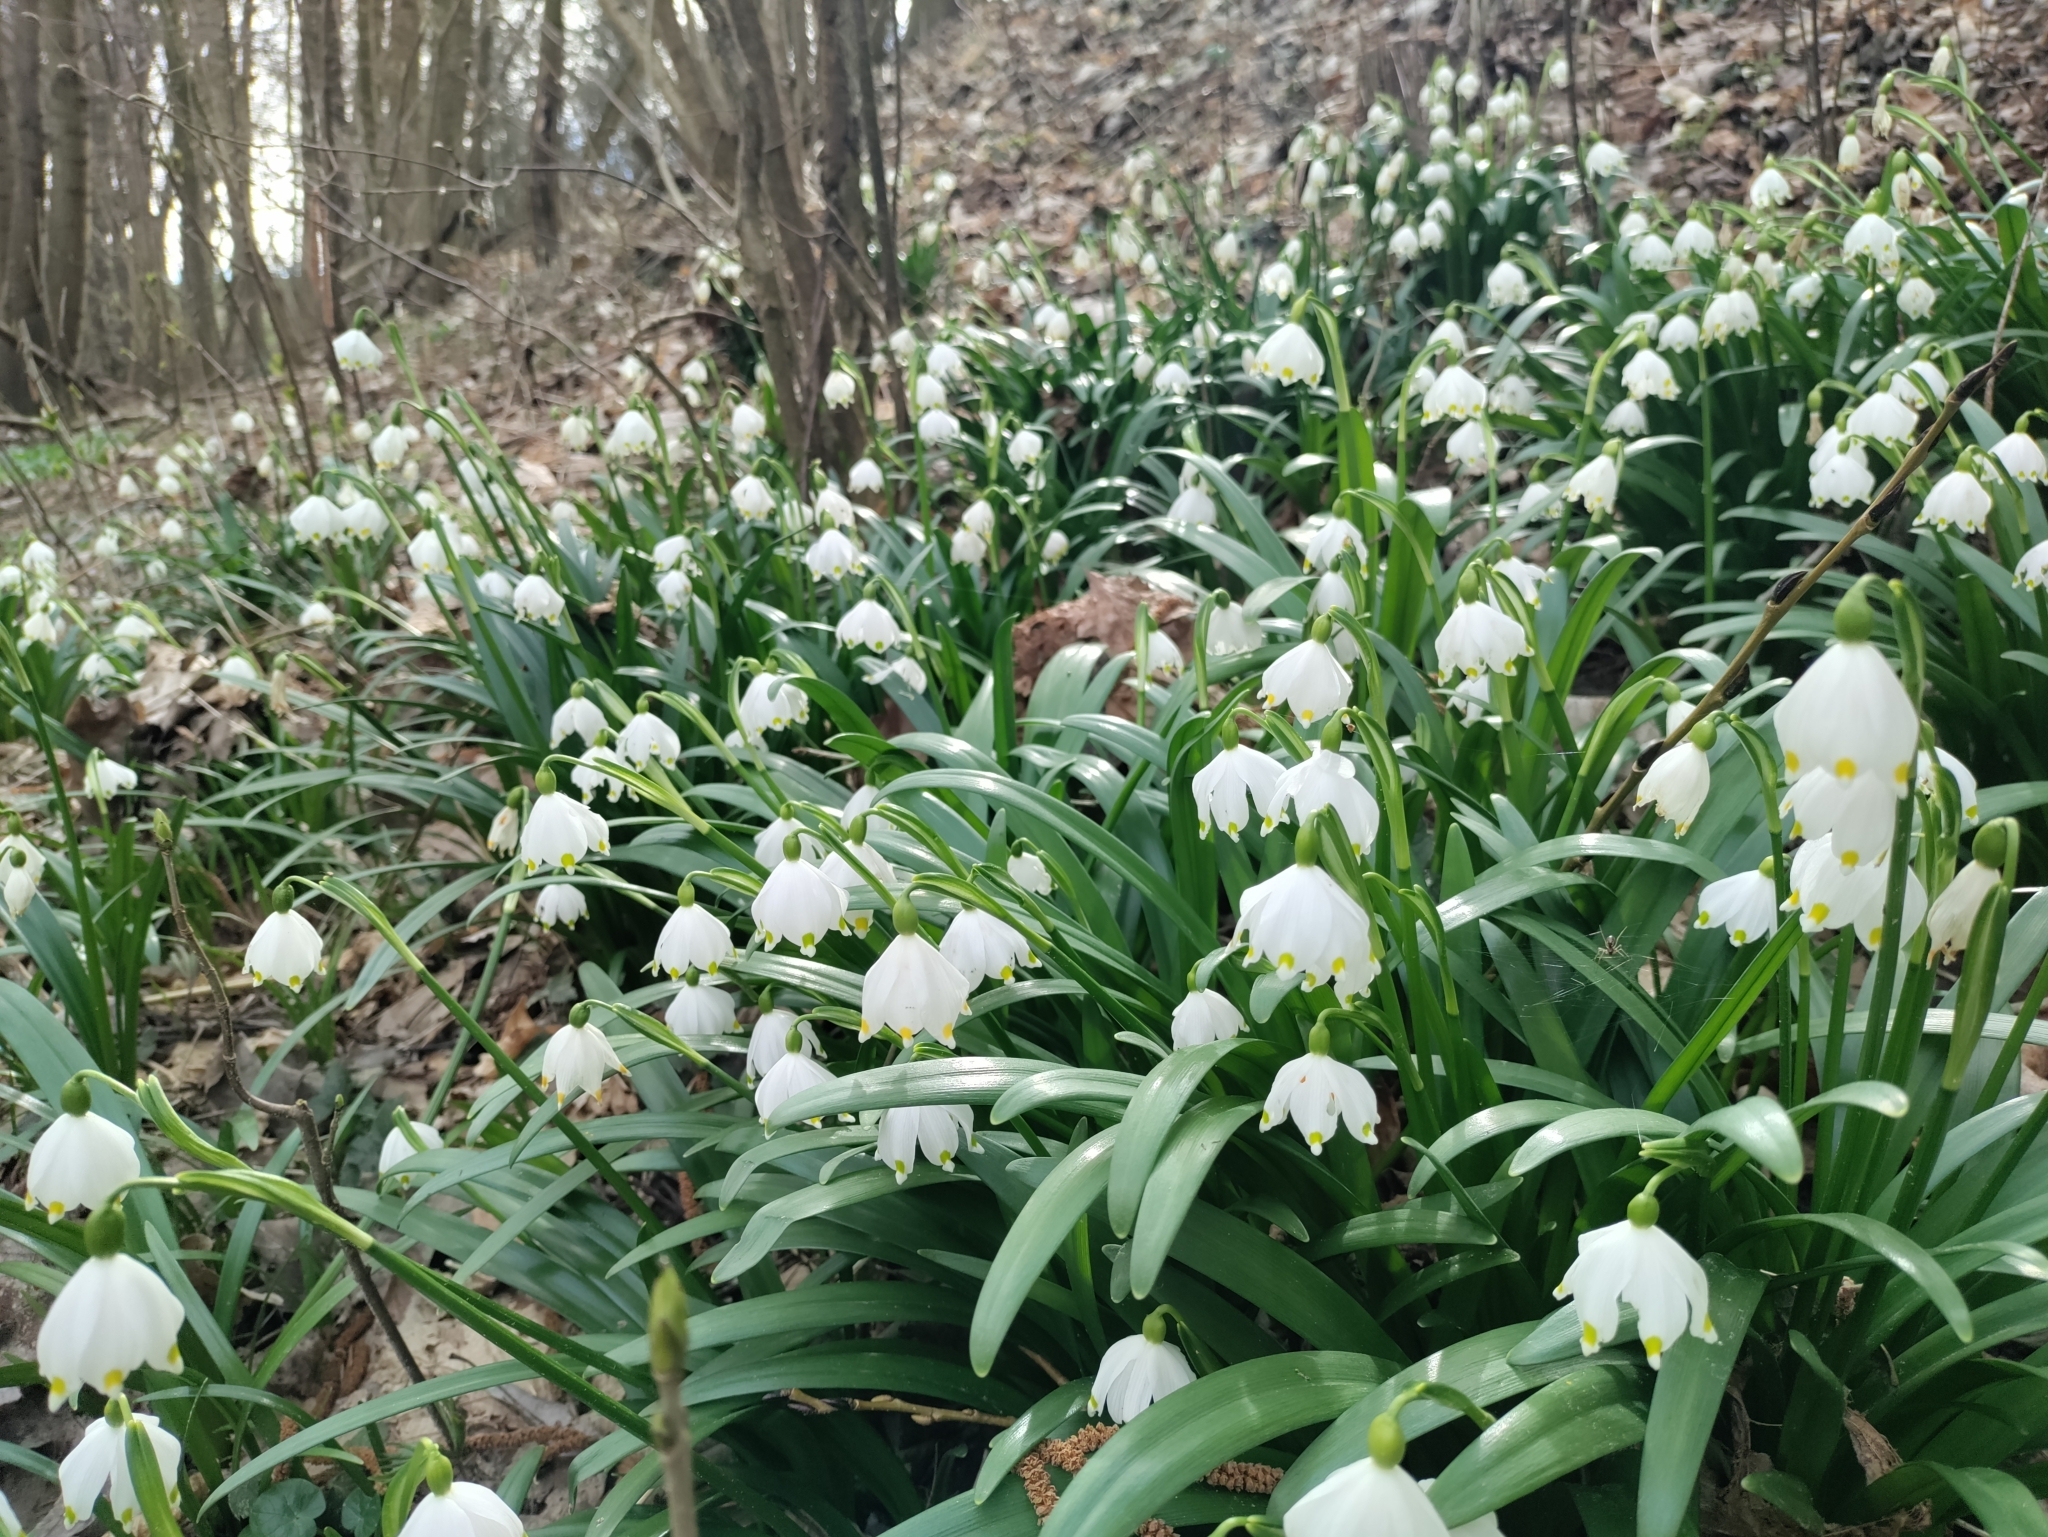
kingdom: Plantae
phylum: Tracheophyta
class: Liliopsida
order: Asparagales
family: Amaryllidaceae
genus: Leucojum
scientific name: Leucojum vernum
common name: Spring snowflake
